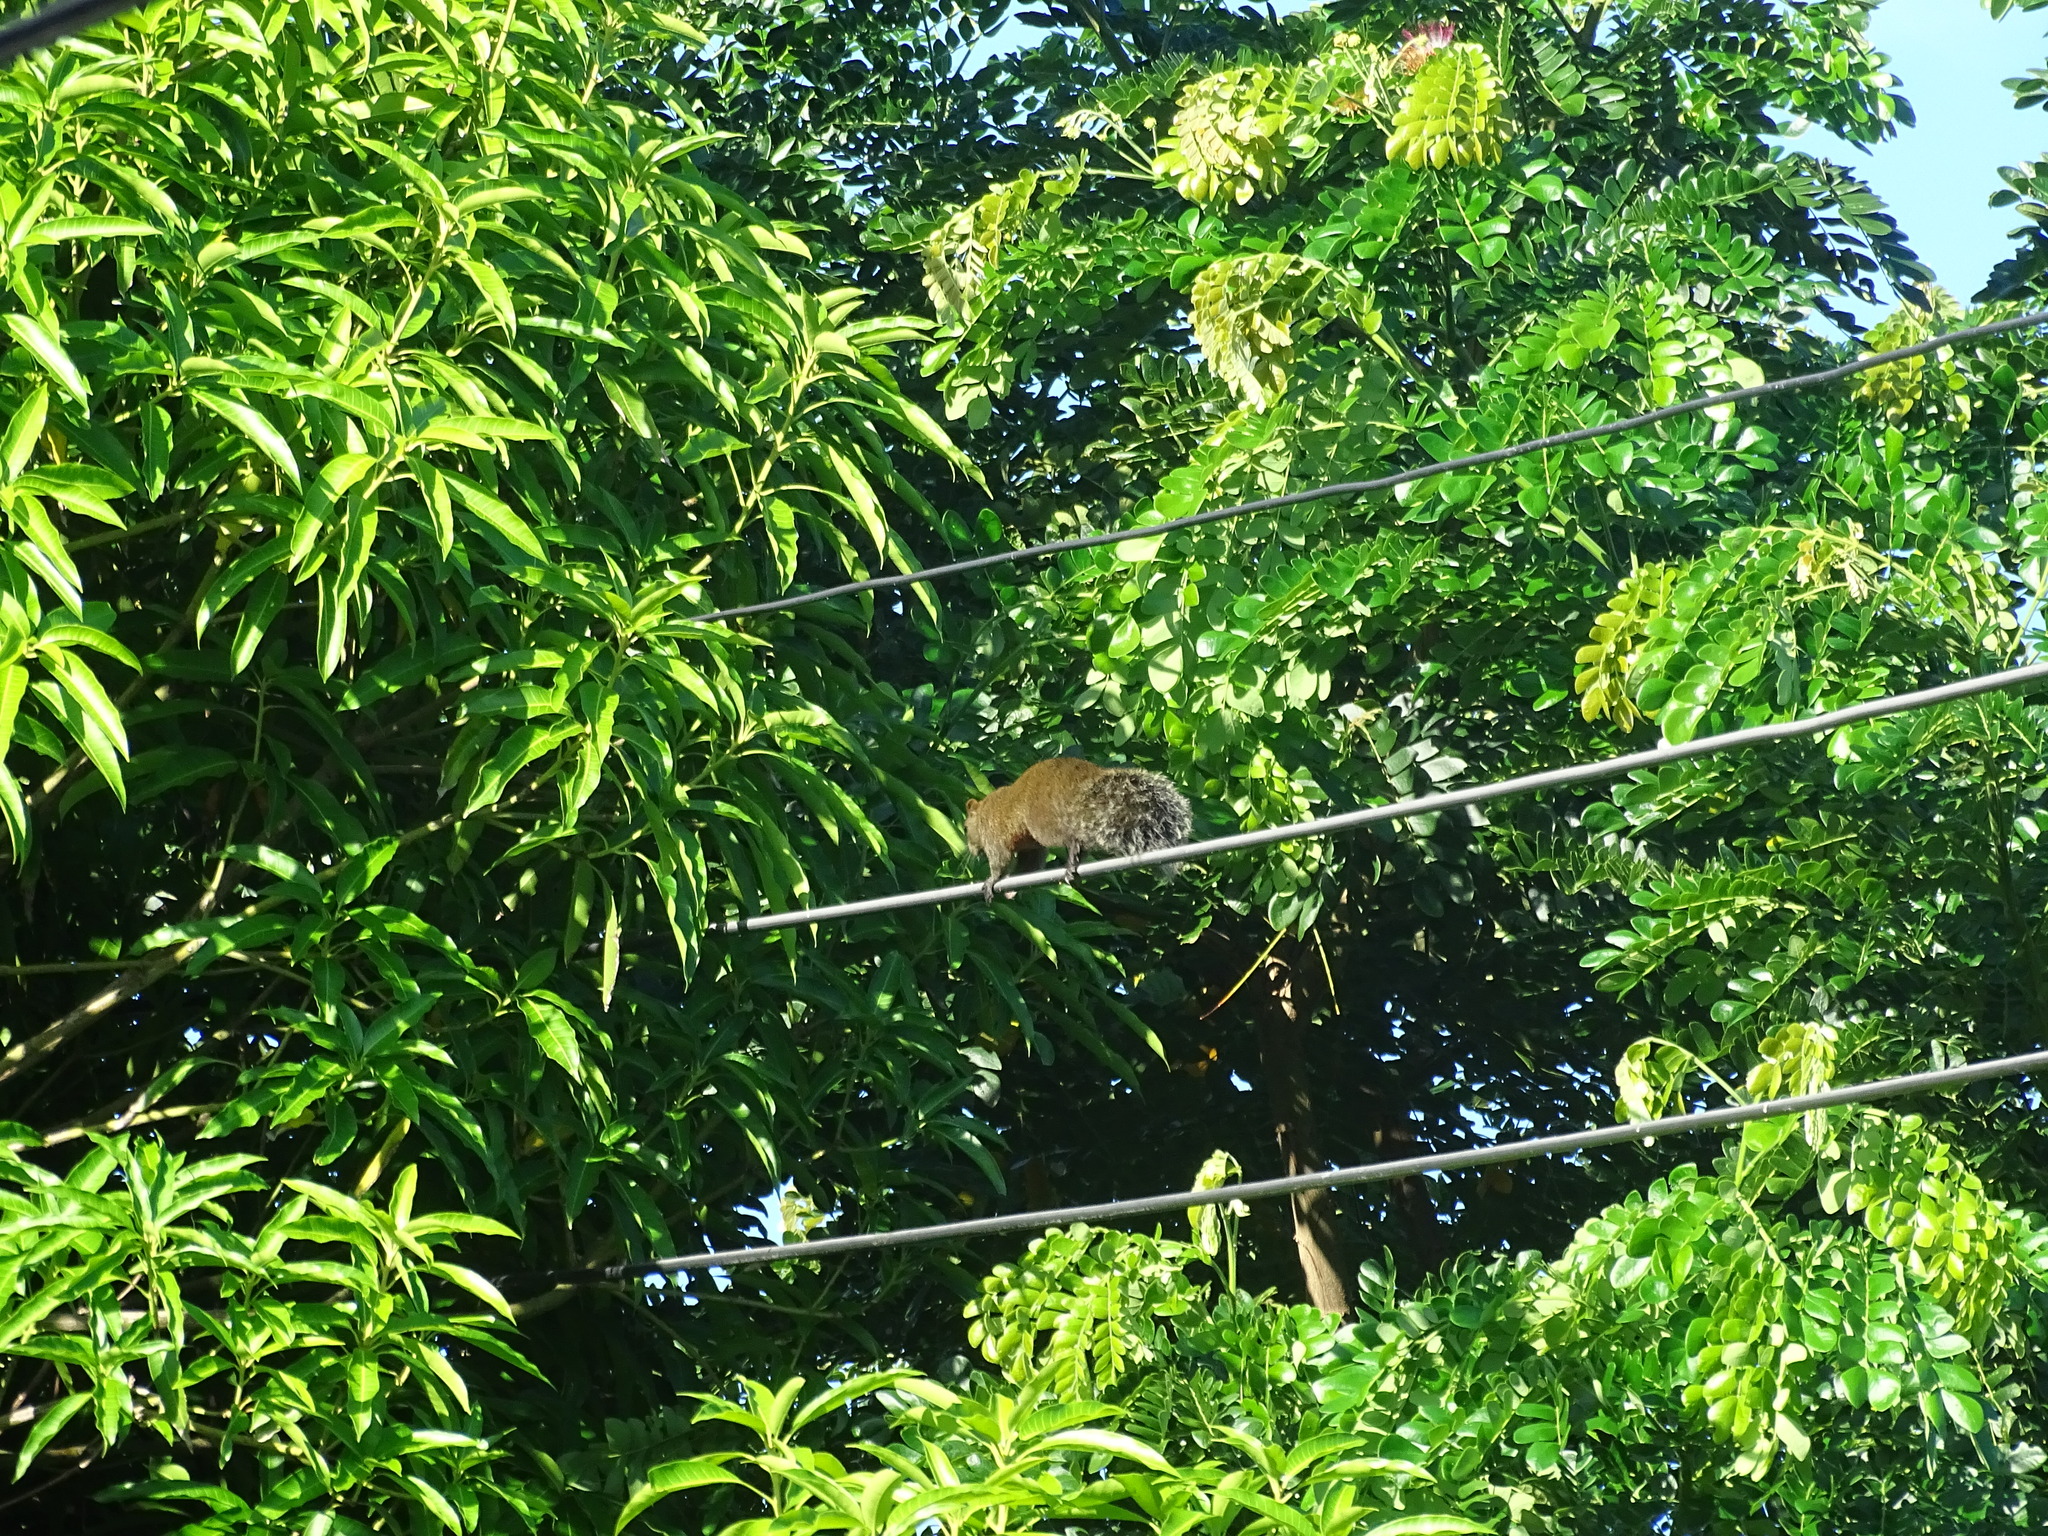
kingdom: Animalia
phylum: Chordata
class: Mammalia
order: Rodentia
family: Sciuridae
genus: Callosciurus
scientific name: Callosciurus erythraeus
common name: Pallas's squirrel
